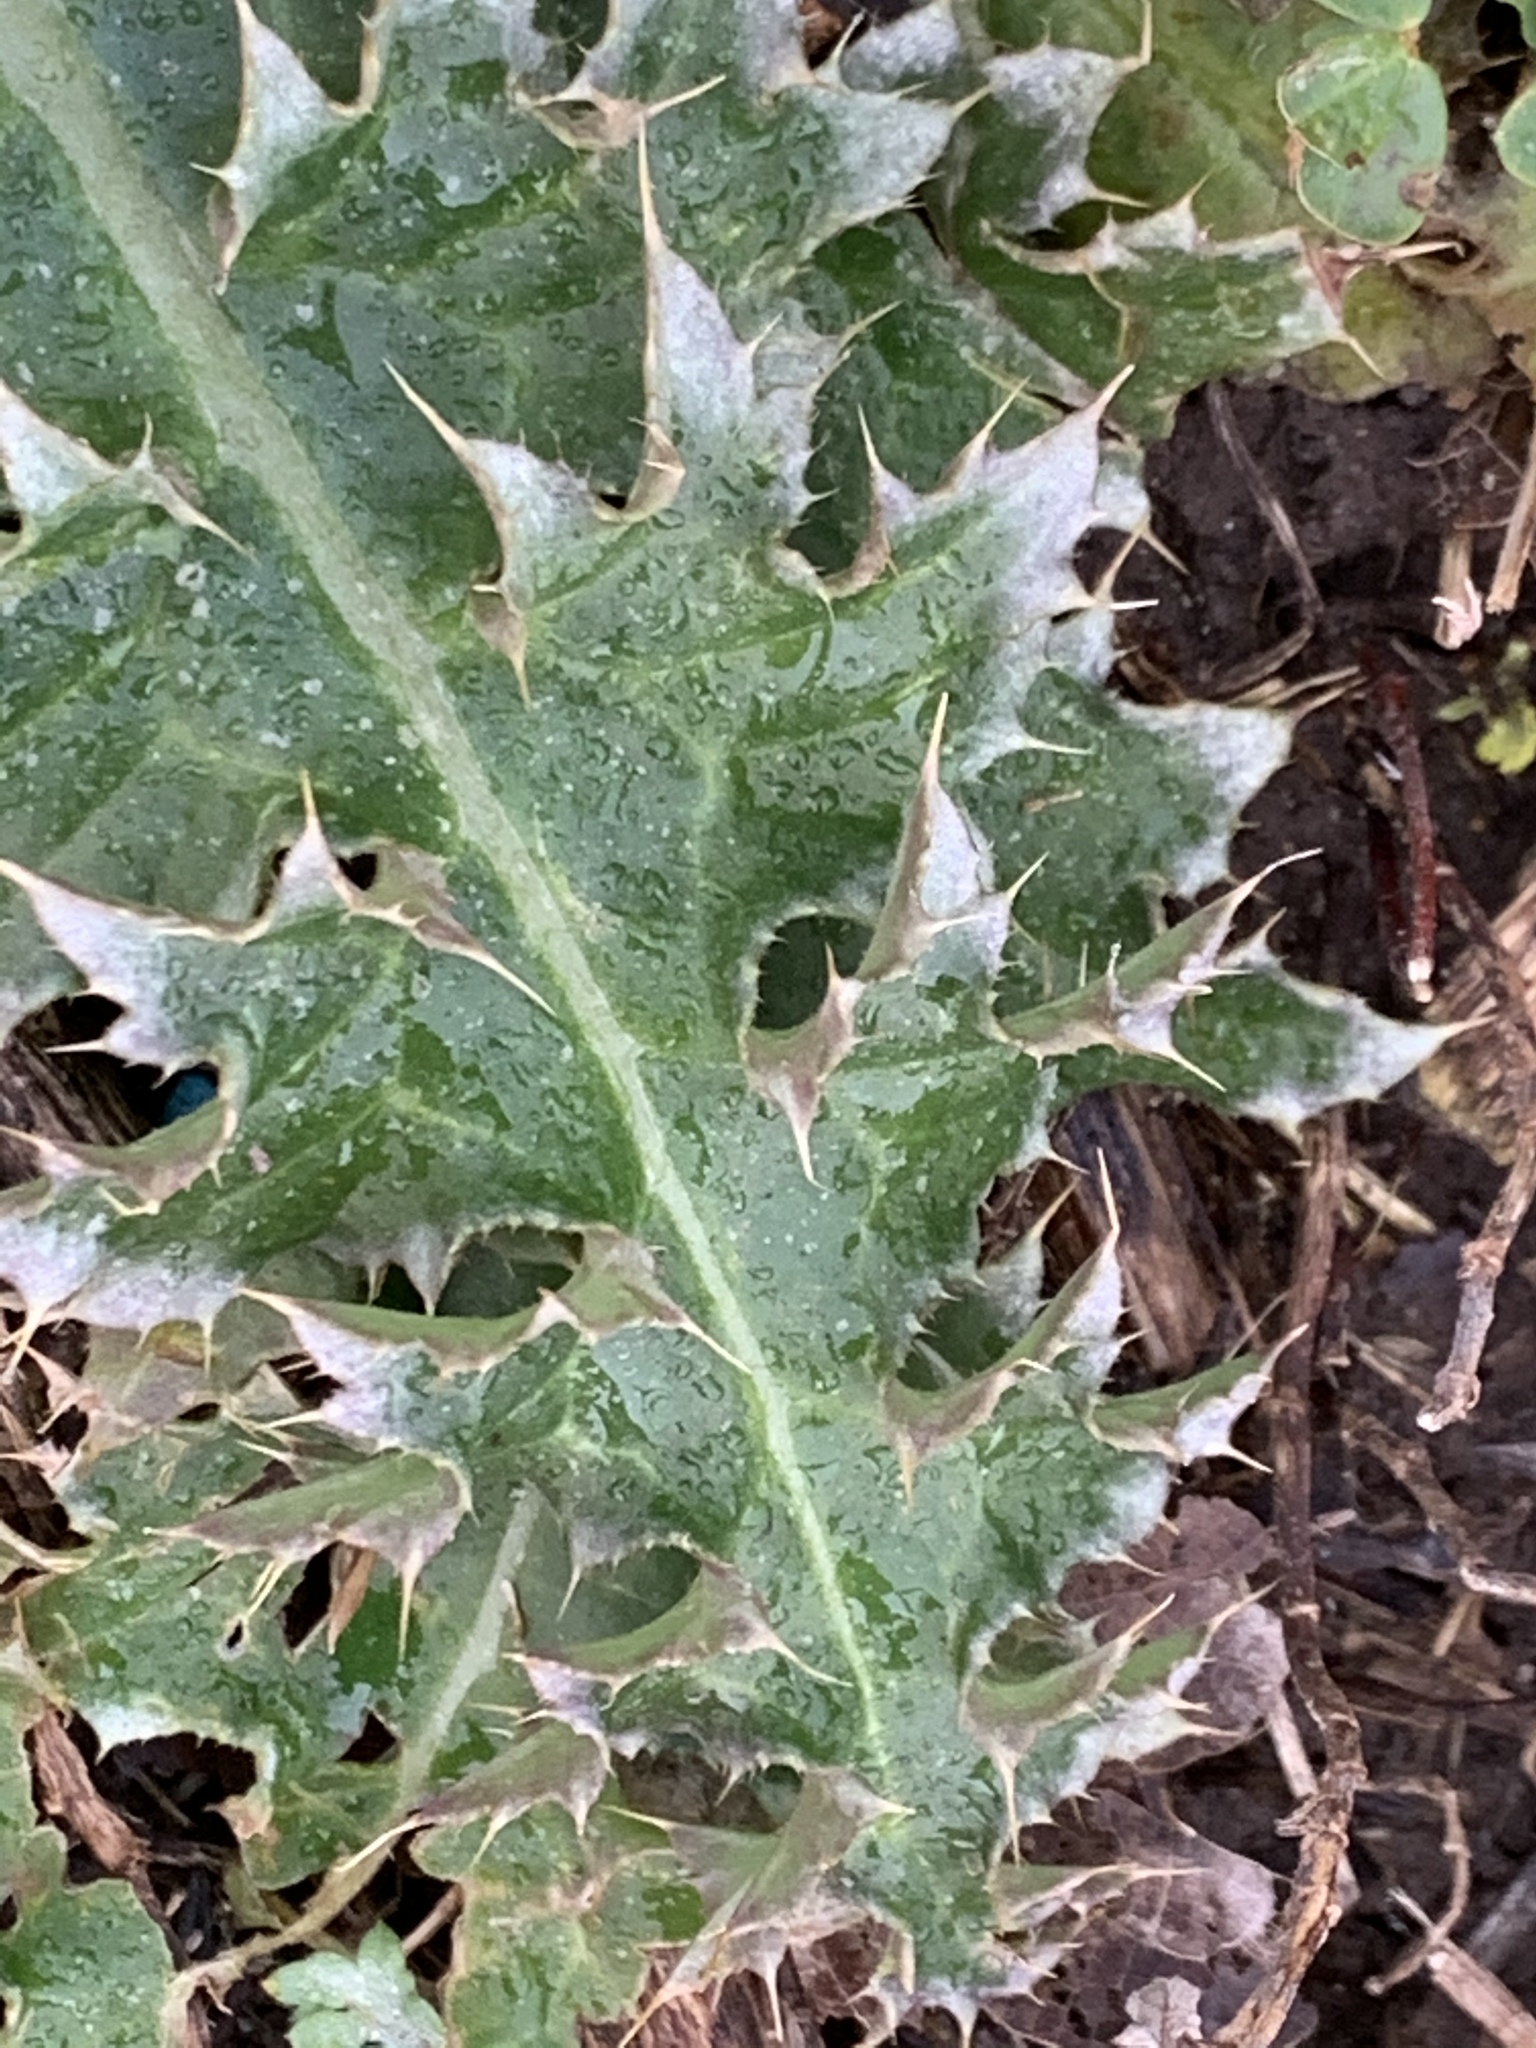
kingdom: Plantae
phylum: Tracheophyta
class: Magnoliopsida
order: Asterales
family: Asteraceae
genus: Carduus
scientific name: Carduus nutans
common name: Musk thistle
